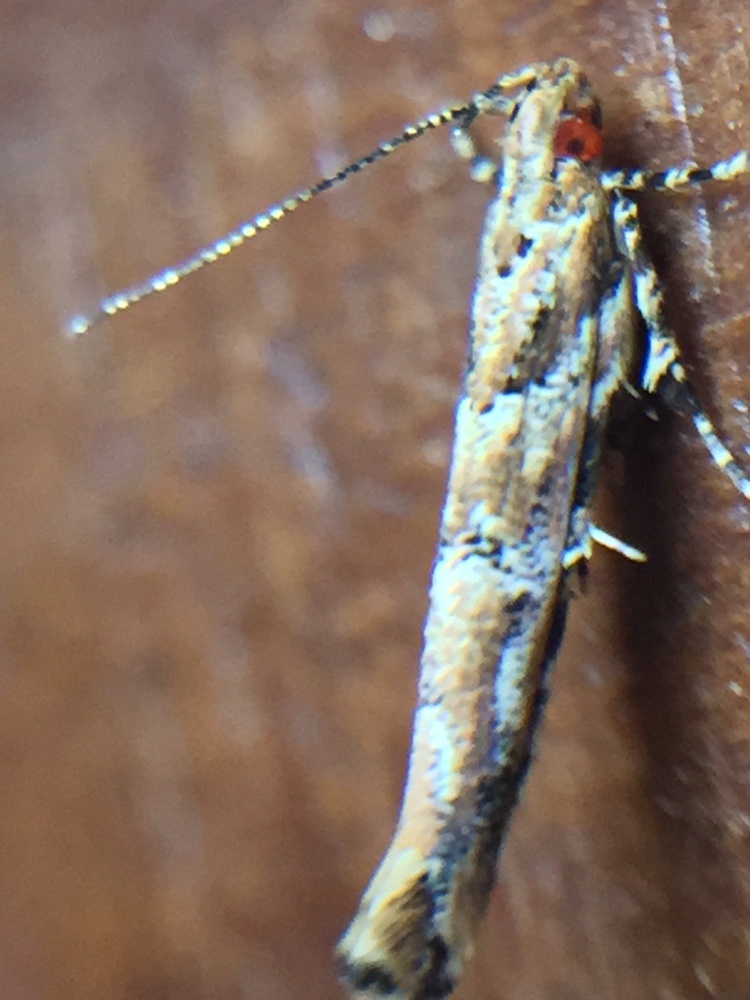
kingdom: Animalia
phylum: Arthropoda
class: Insecta
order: Lepidoptera
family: Cosmopterigidae
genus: Pyroderces
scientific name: Pyroderces aellotricha
